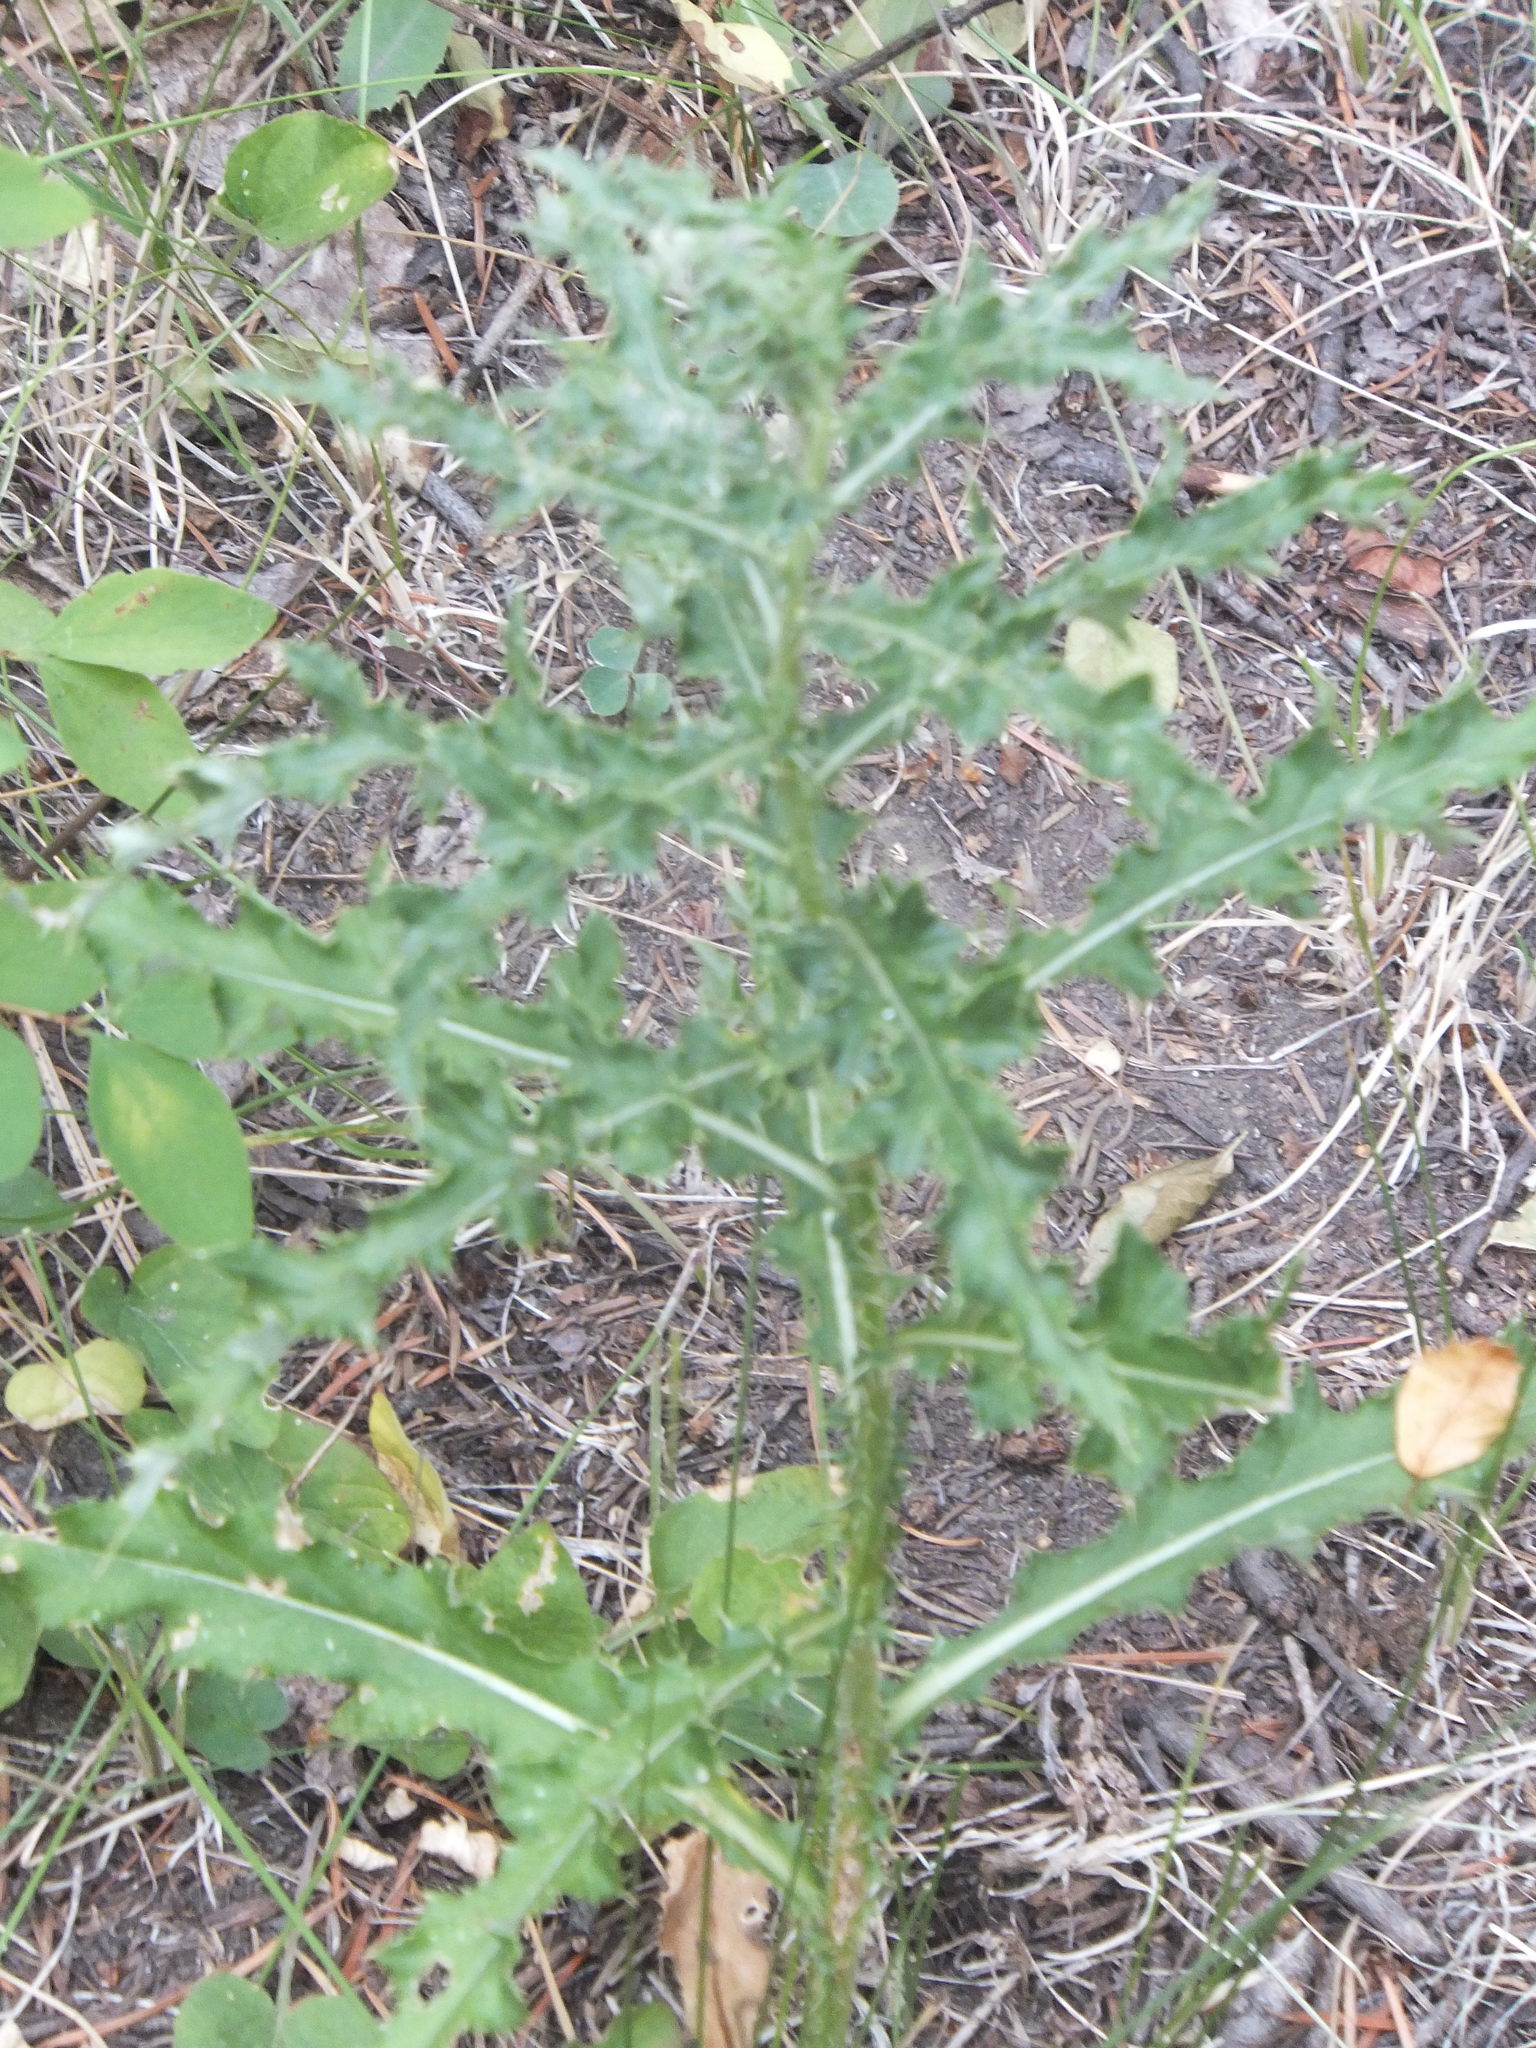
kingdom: Plantae
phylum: Tracheophyta
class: Magnoliopsida
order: Asterales
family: Asteraceae
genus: Cirsium
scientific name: Cirsium arvense
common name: Creeping thistle
